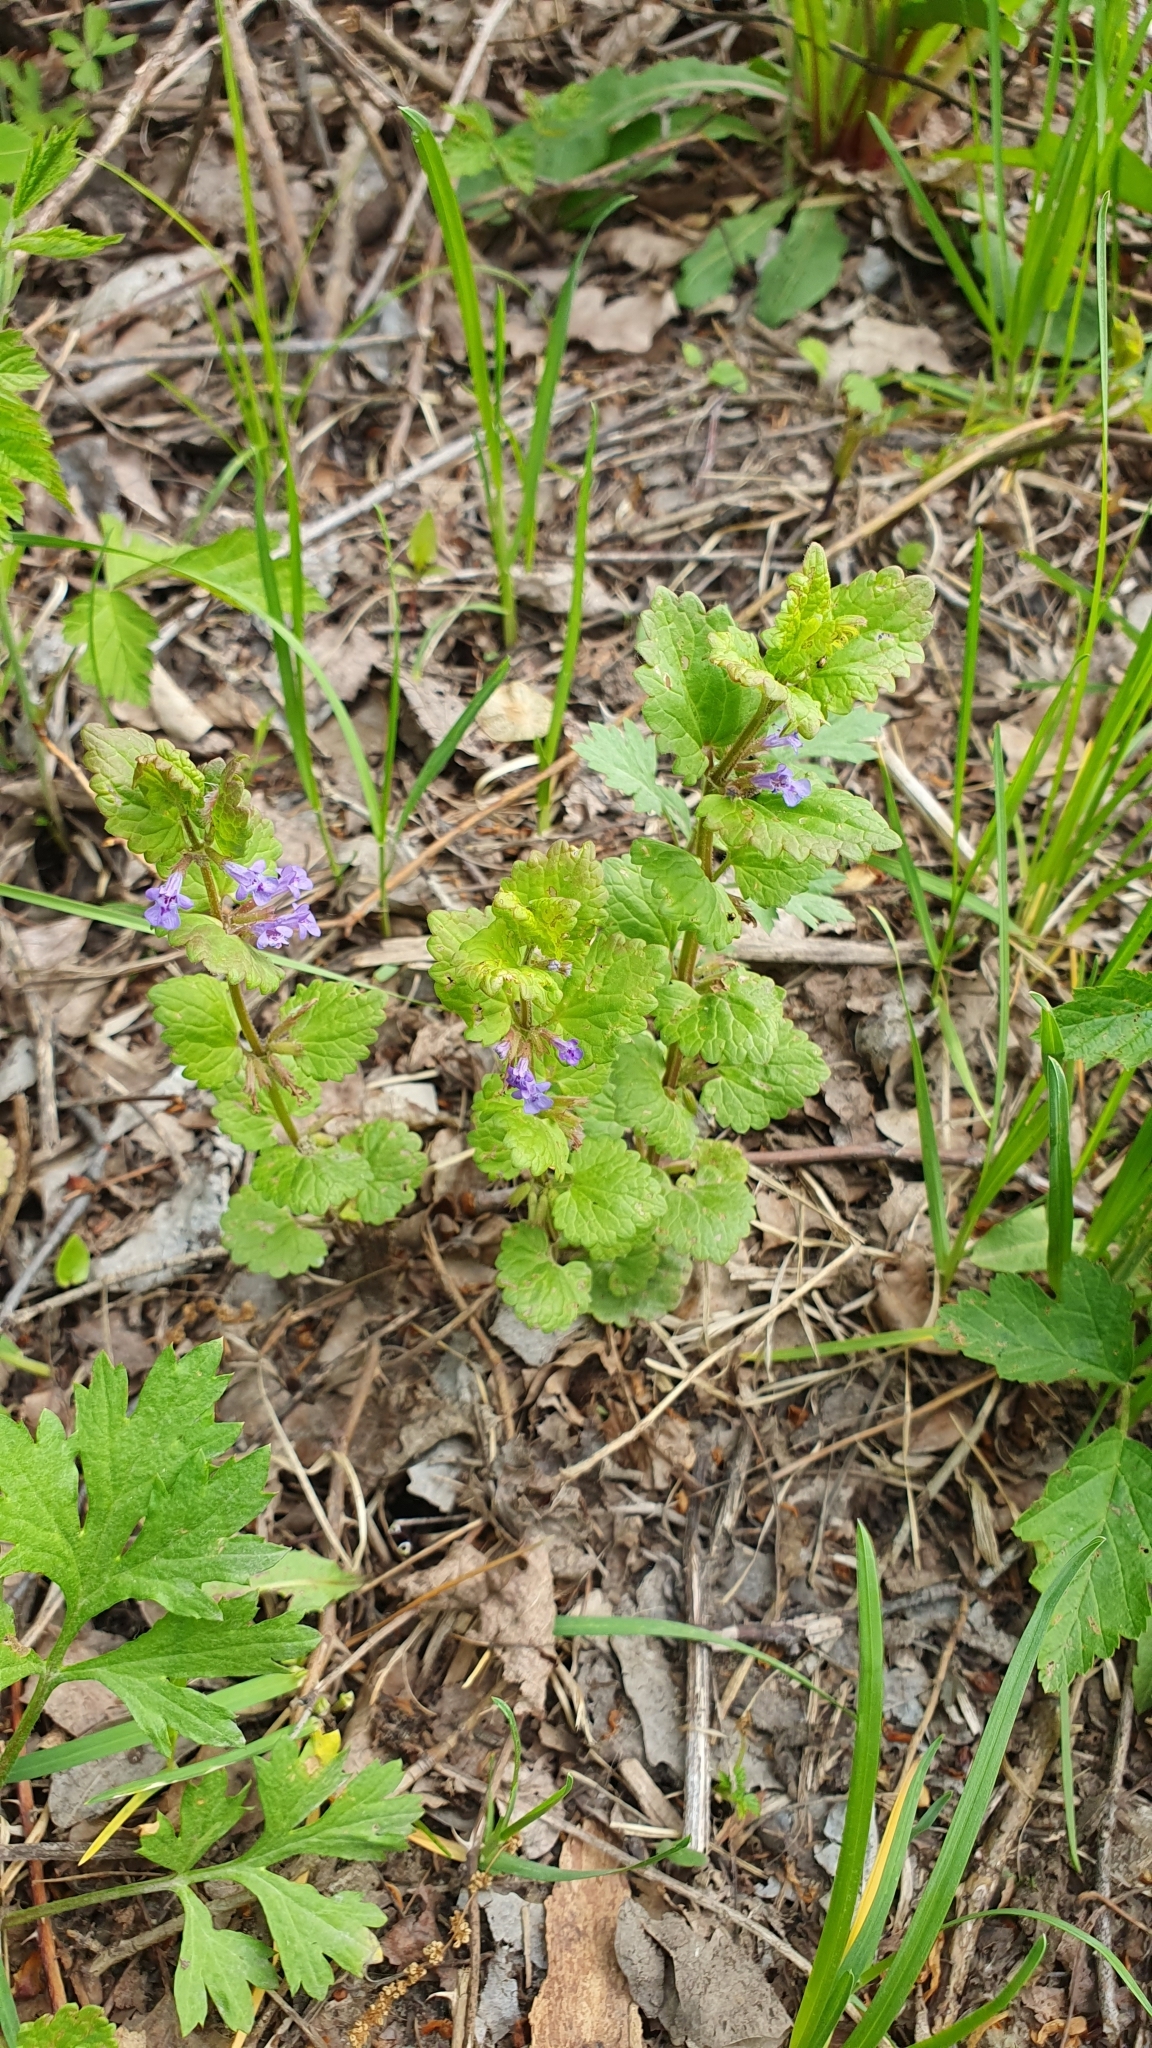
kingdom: Plantae
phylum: Tracheophyta
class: Magnoliopsida
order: Lamiales
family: Lamiaceae
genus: Glechoma
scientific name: Glechoma hederacea
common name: Ground ivy
